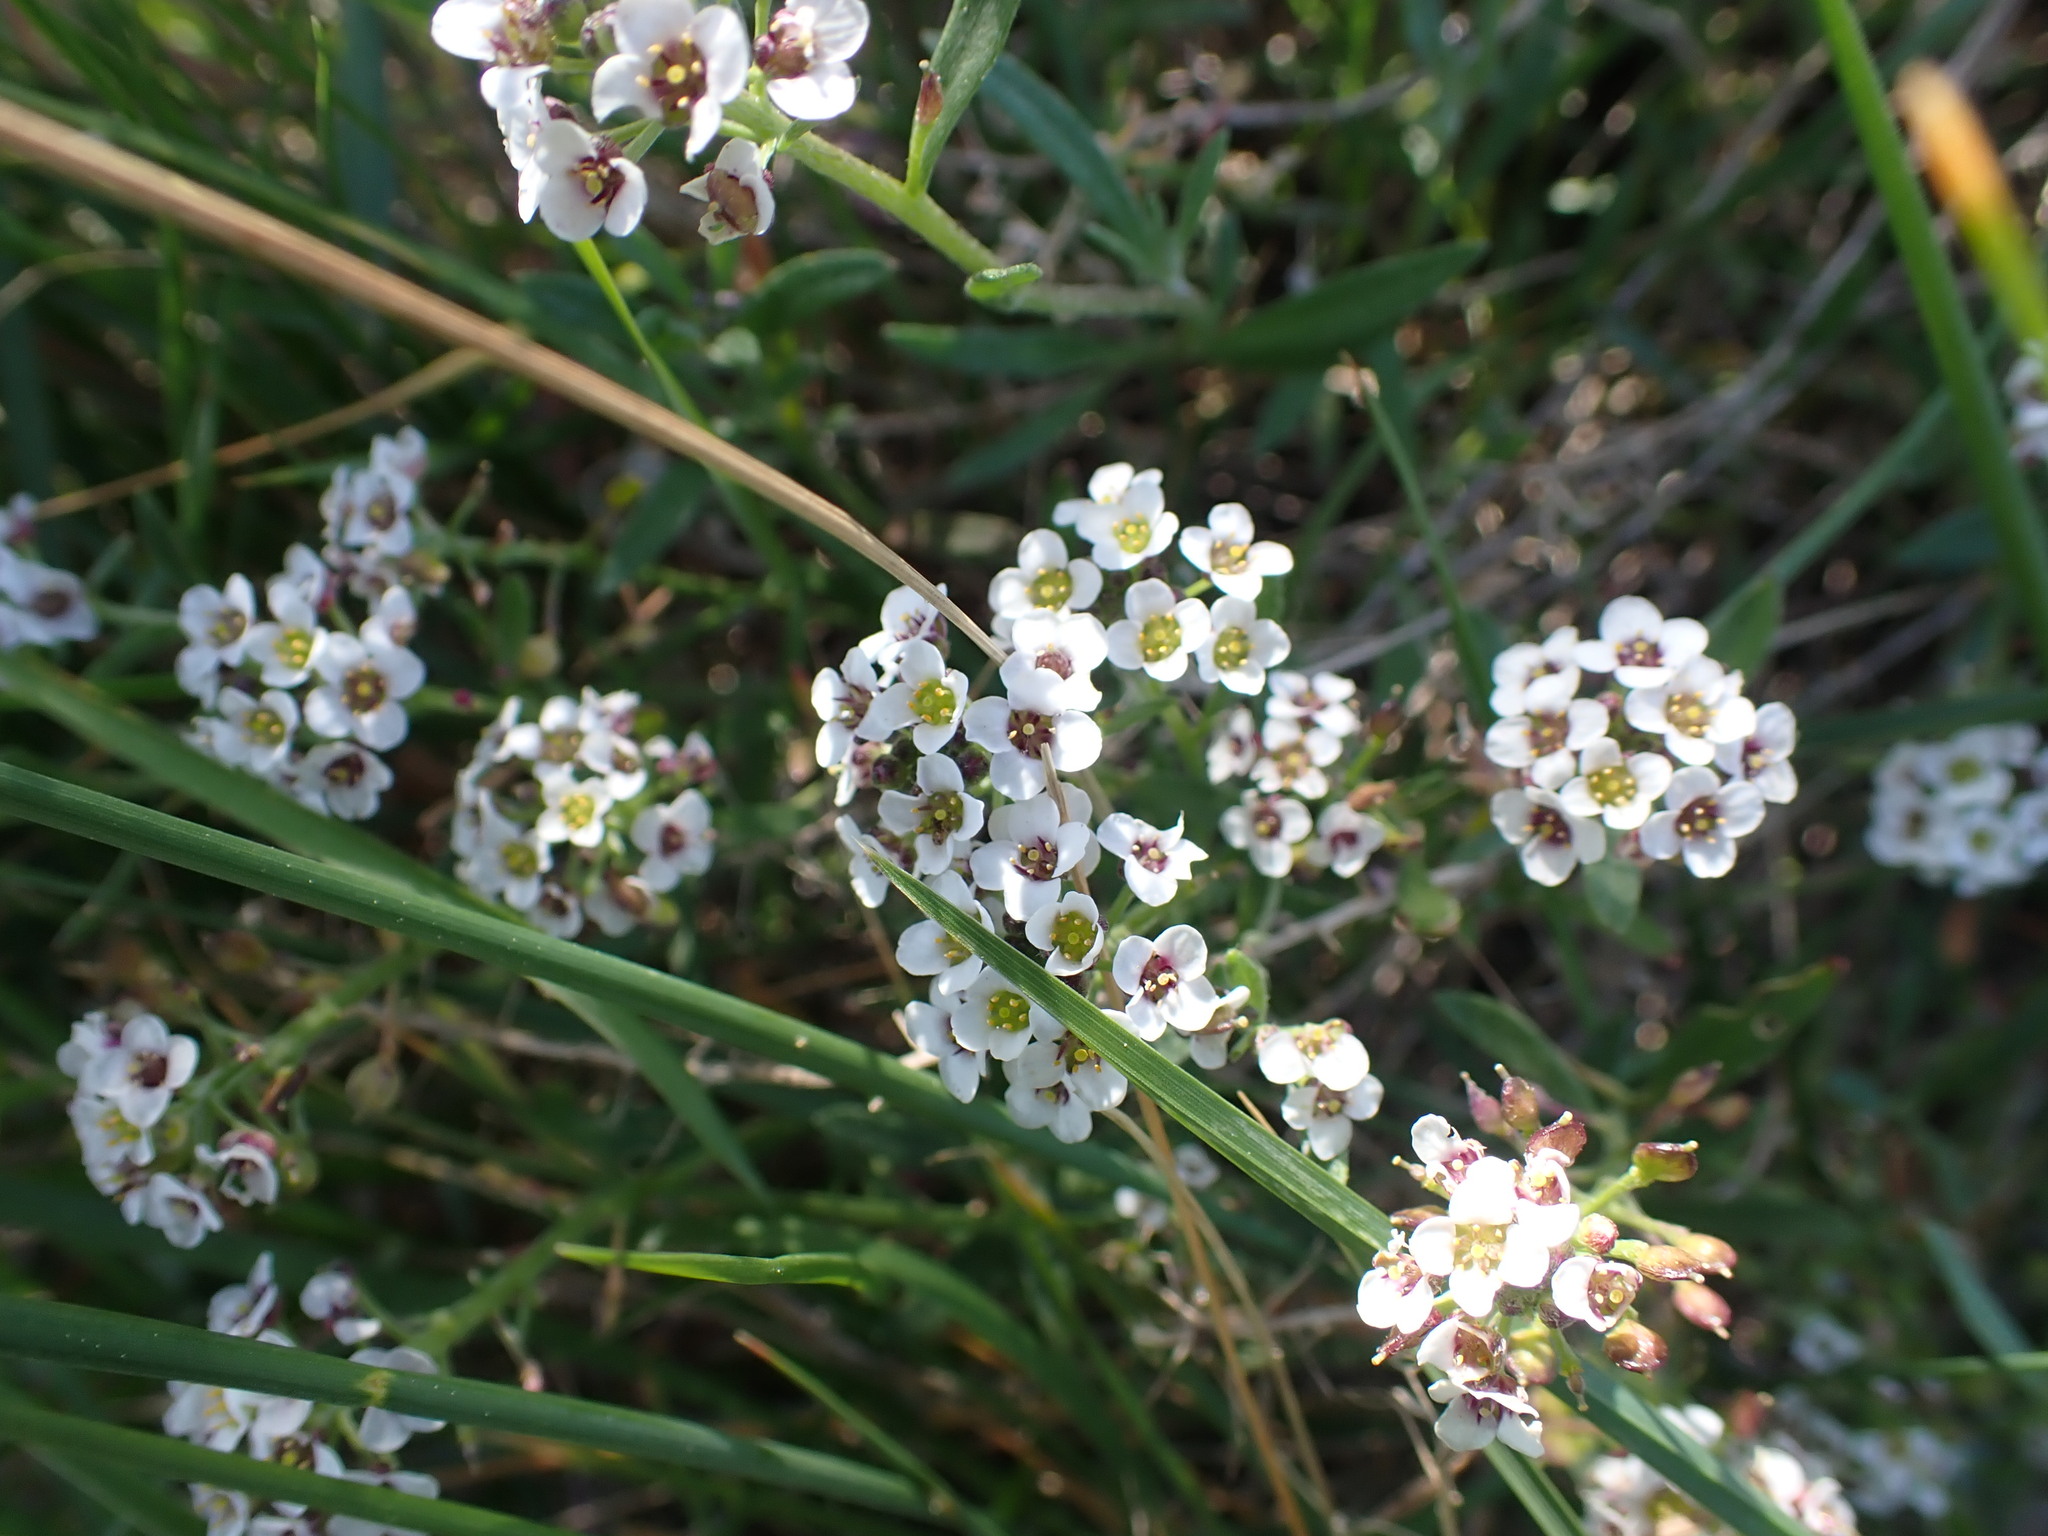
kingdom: Plantae
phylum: Tracheophyta
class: Magnoliopsida
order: Brassicales
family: Brassicaceae
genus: Lobularia
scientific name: Lobularia maritima
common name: Sweet alison
